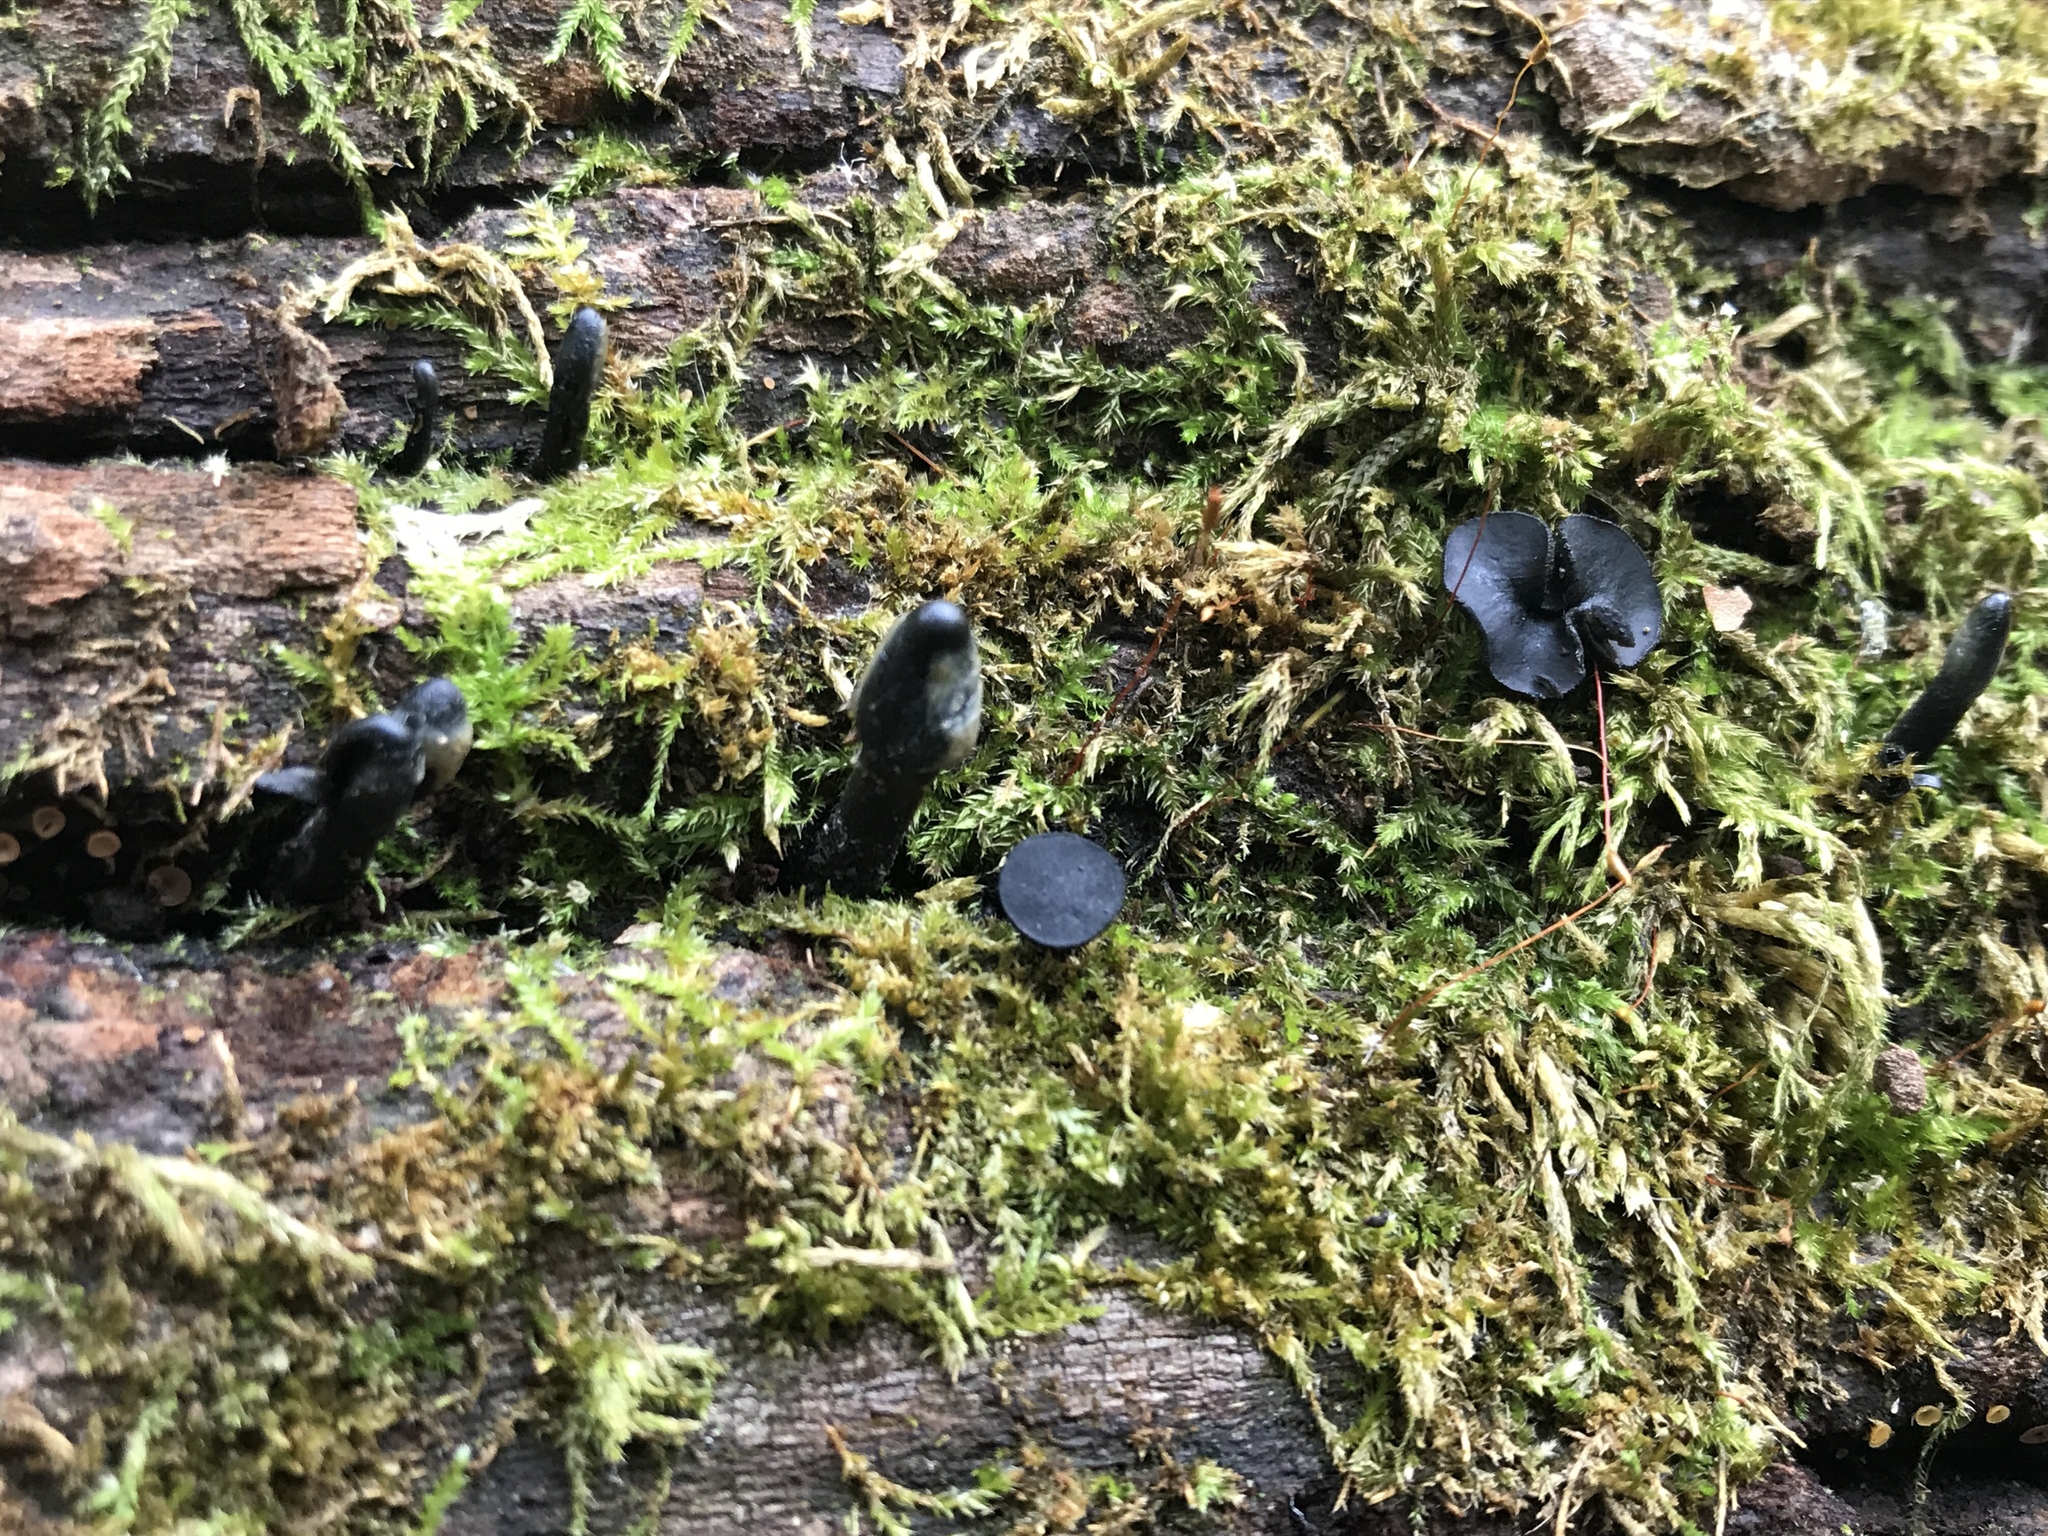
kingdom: Fungi
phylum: Ascomycota
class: Leotiomycetes
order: Helotiales
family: Bulgariaceae
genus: Holwaya
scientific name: Holwaya mucida
